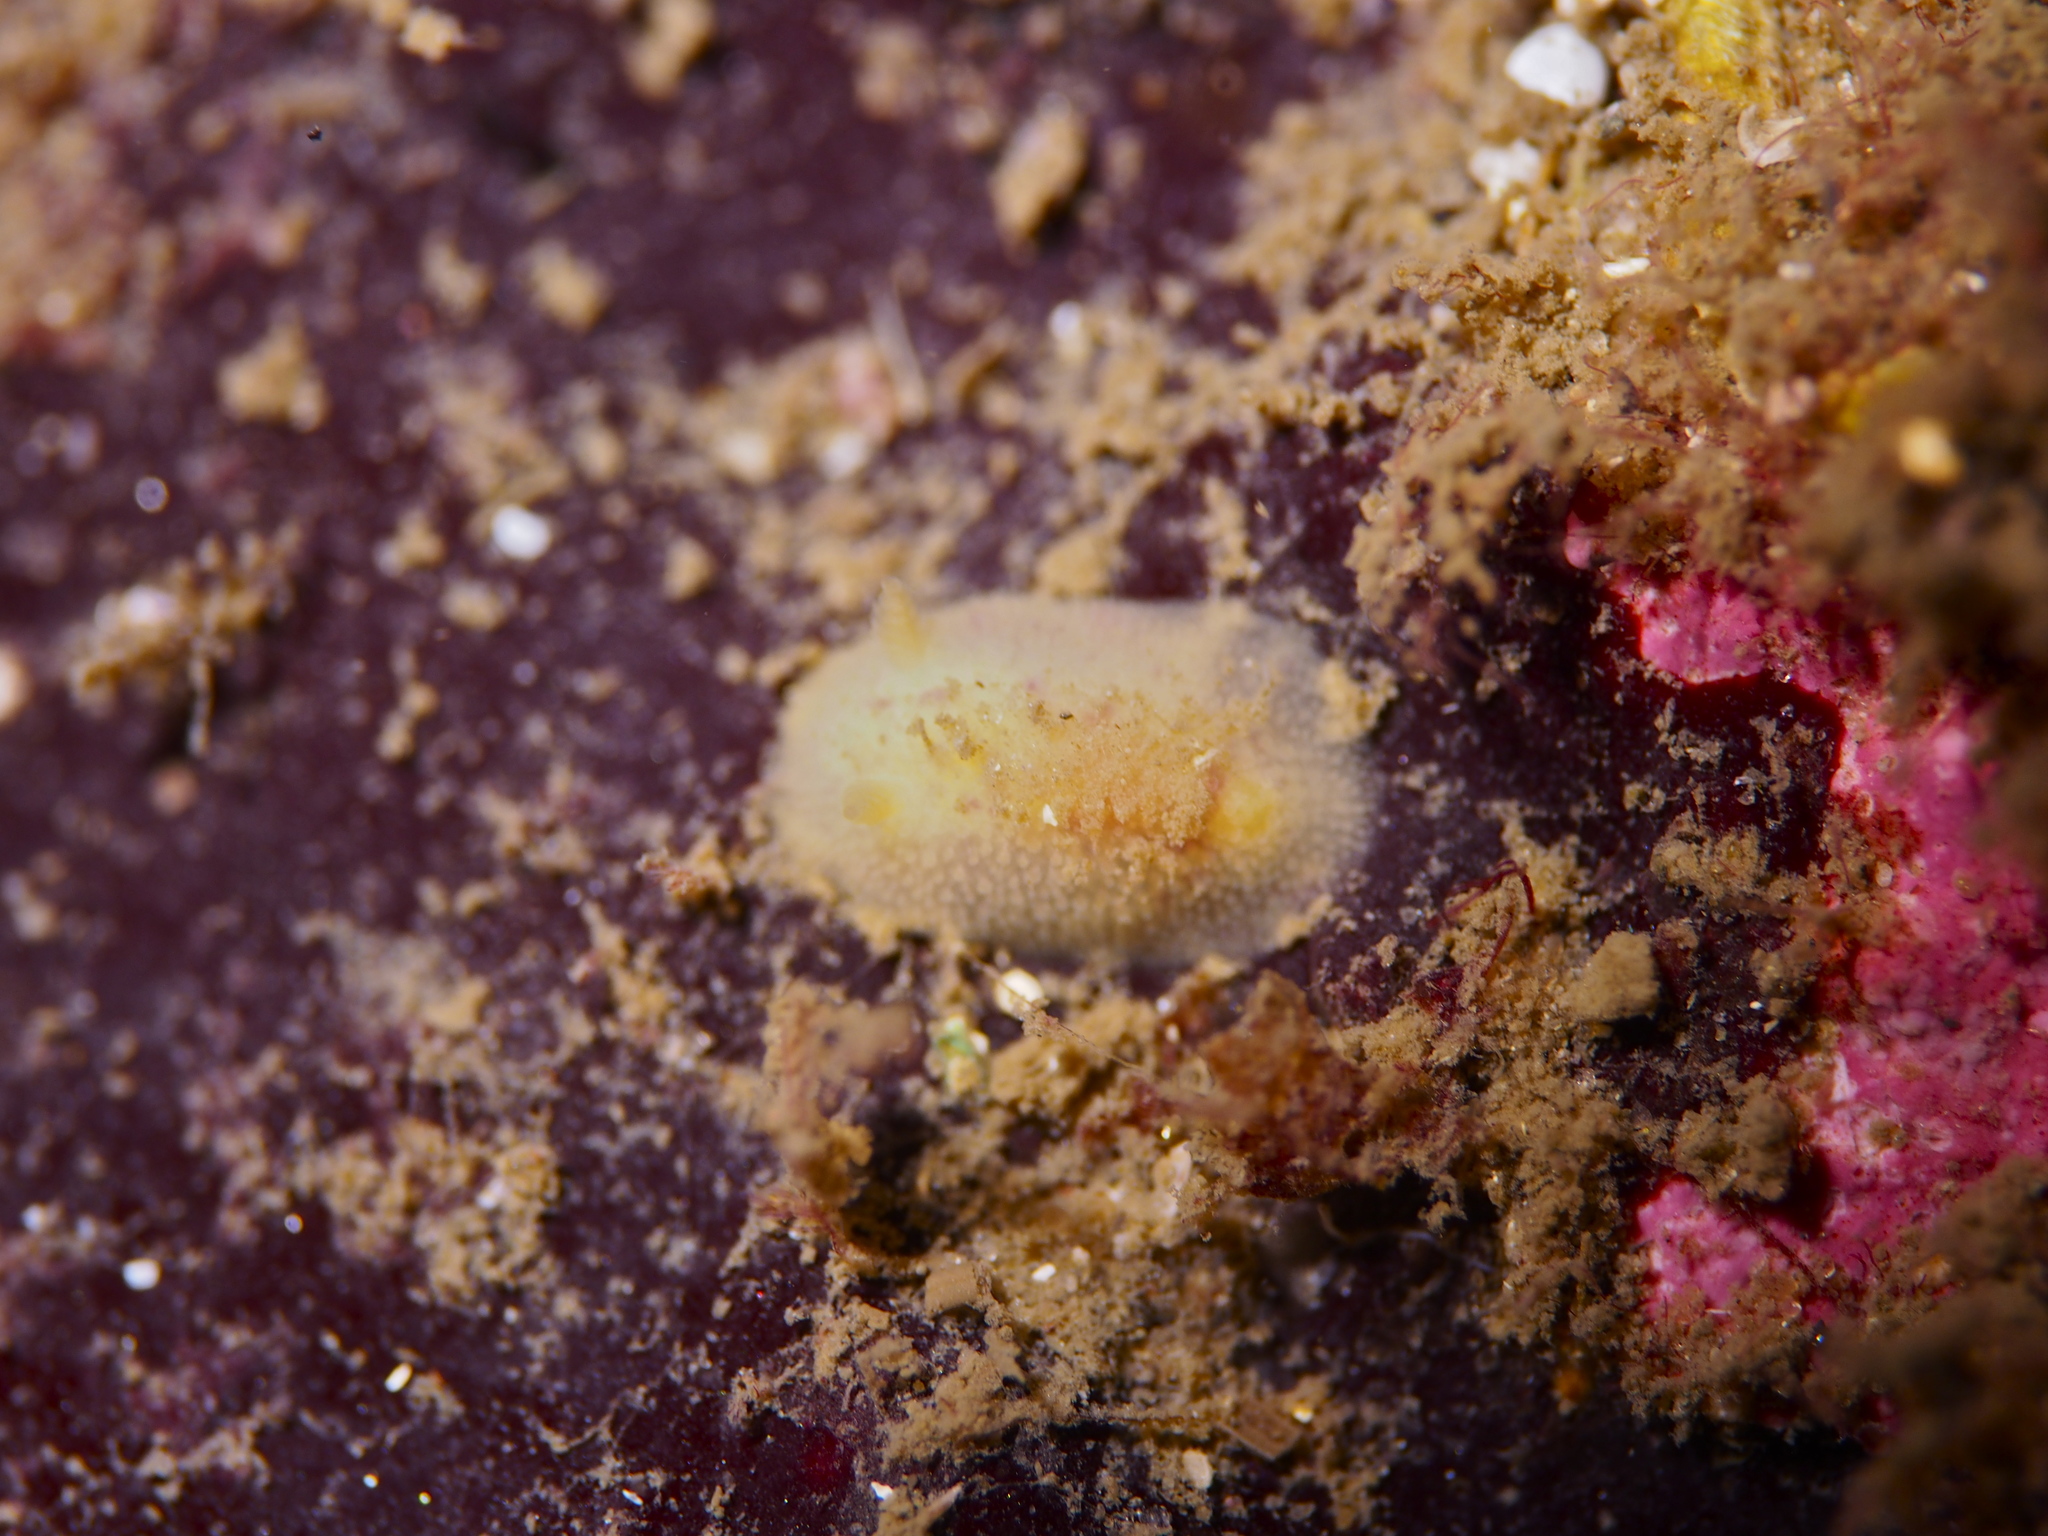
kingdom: Animalia
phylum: Mollusca
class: Gastropoda
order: Nudibranchia
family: Onchidorididae
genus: Acanthodoris
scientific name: Acanthodoris pilosa
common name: Hairy spiny doris
